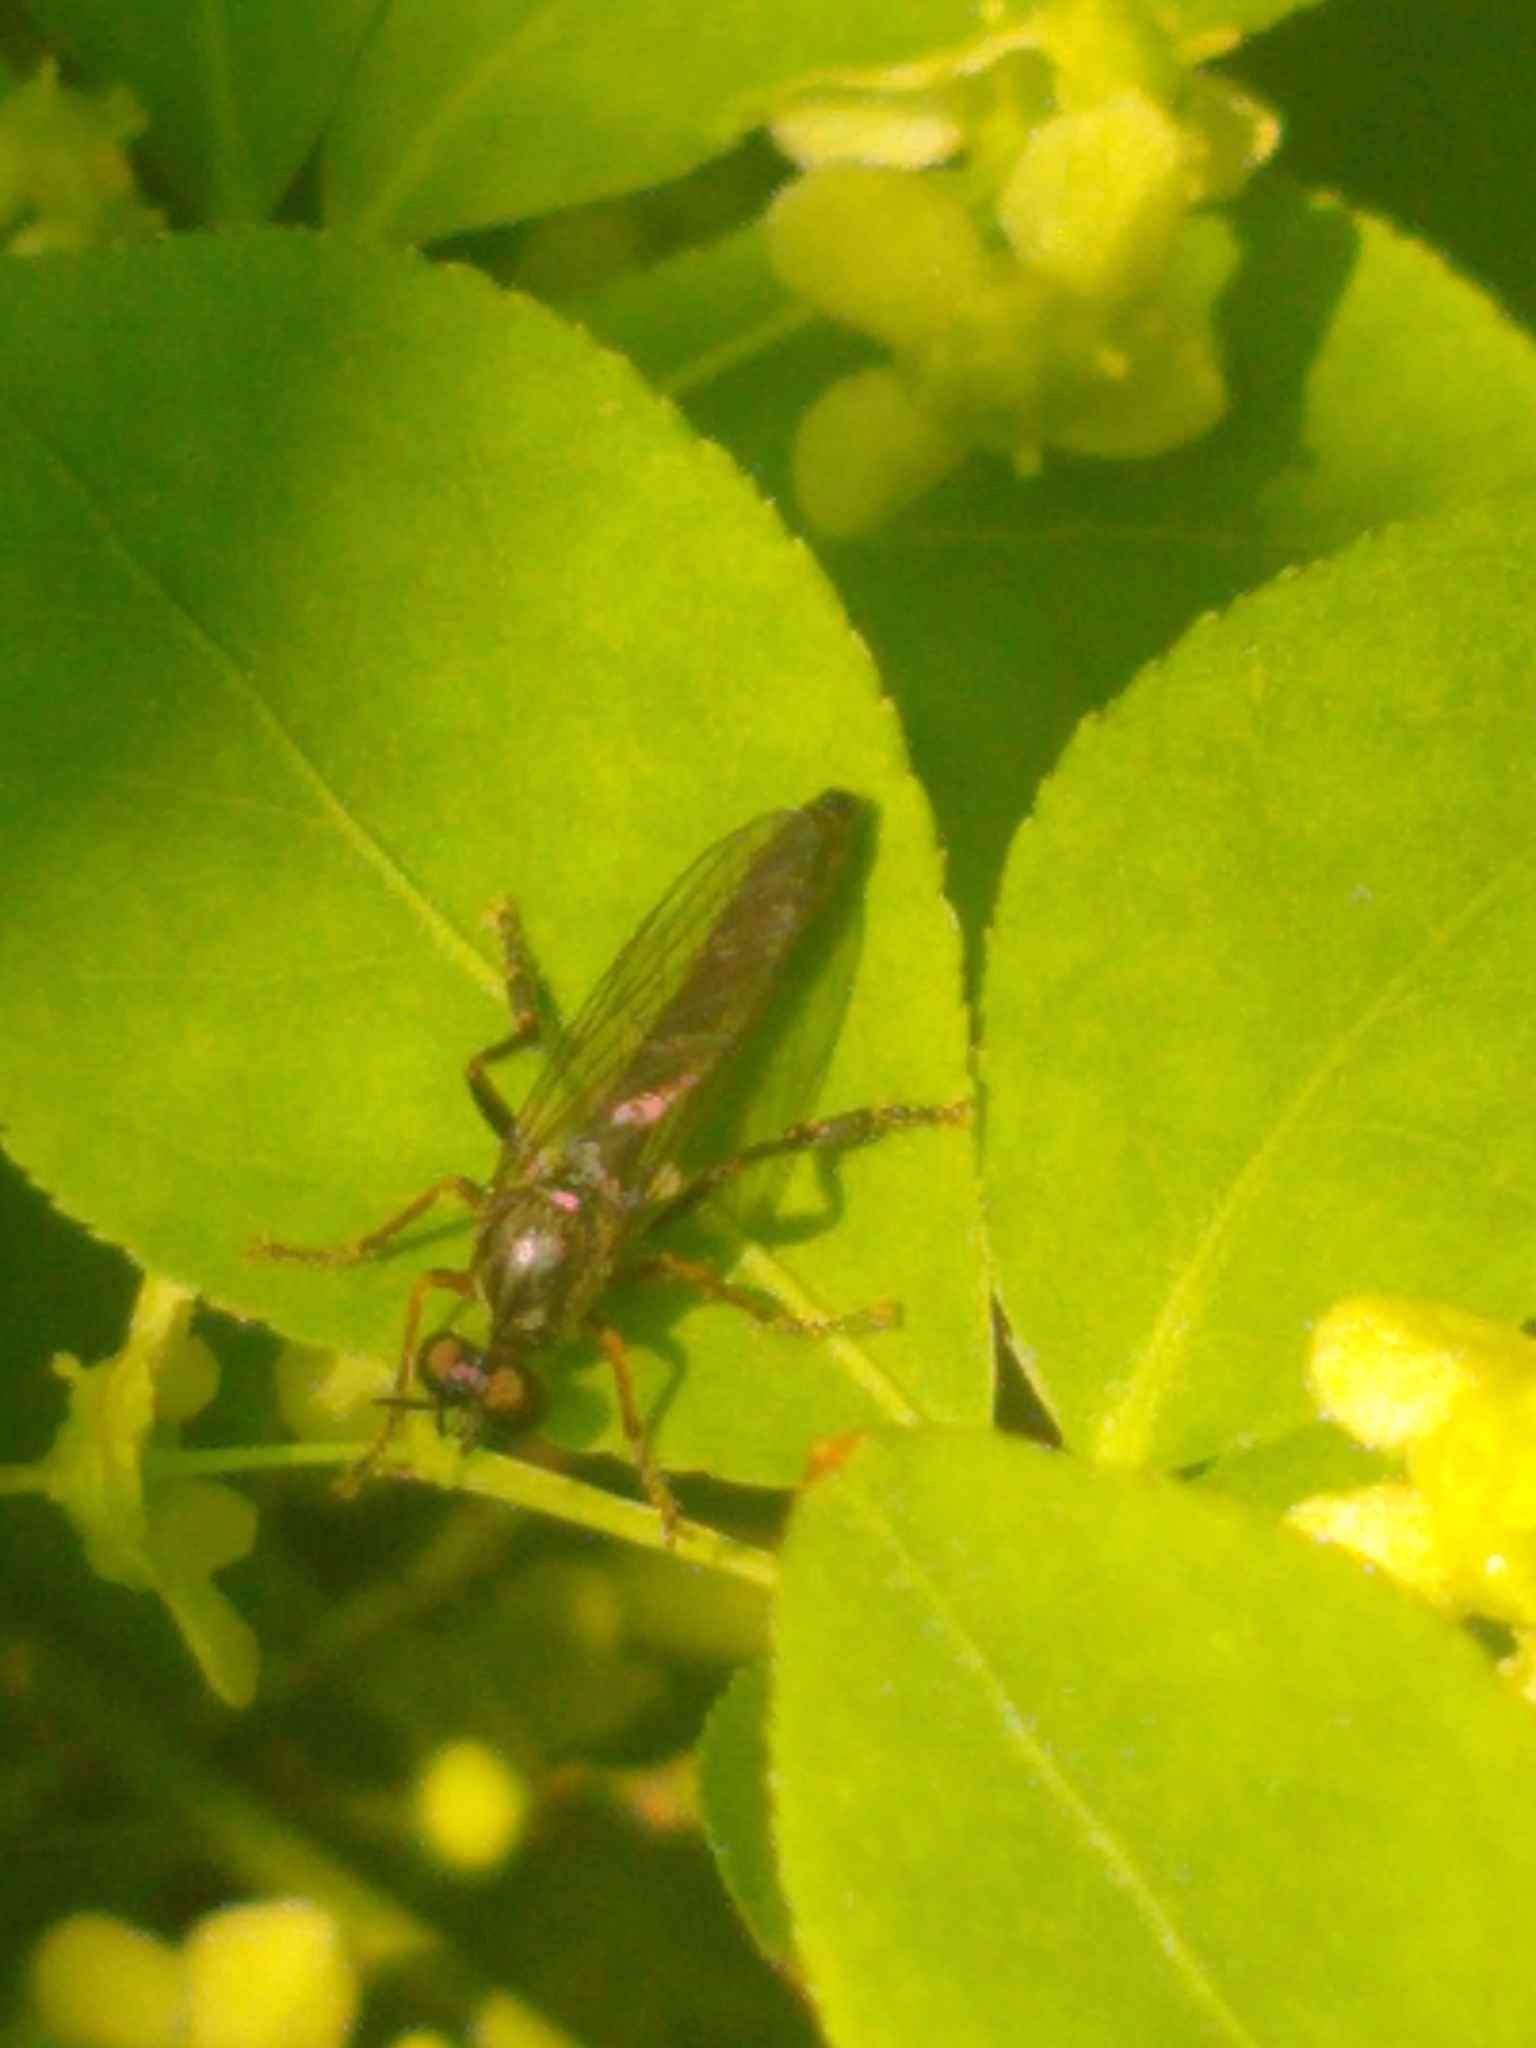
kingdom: Animalia
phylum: Arthropoda
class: Insecta
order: Diptera
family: Asilidae
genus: Dioctria
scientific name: Dioctria hyalipennis
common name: Stripe-legged robberfly
